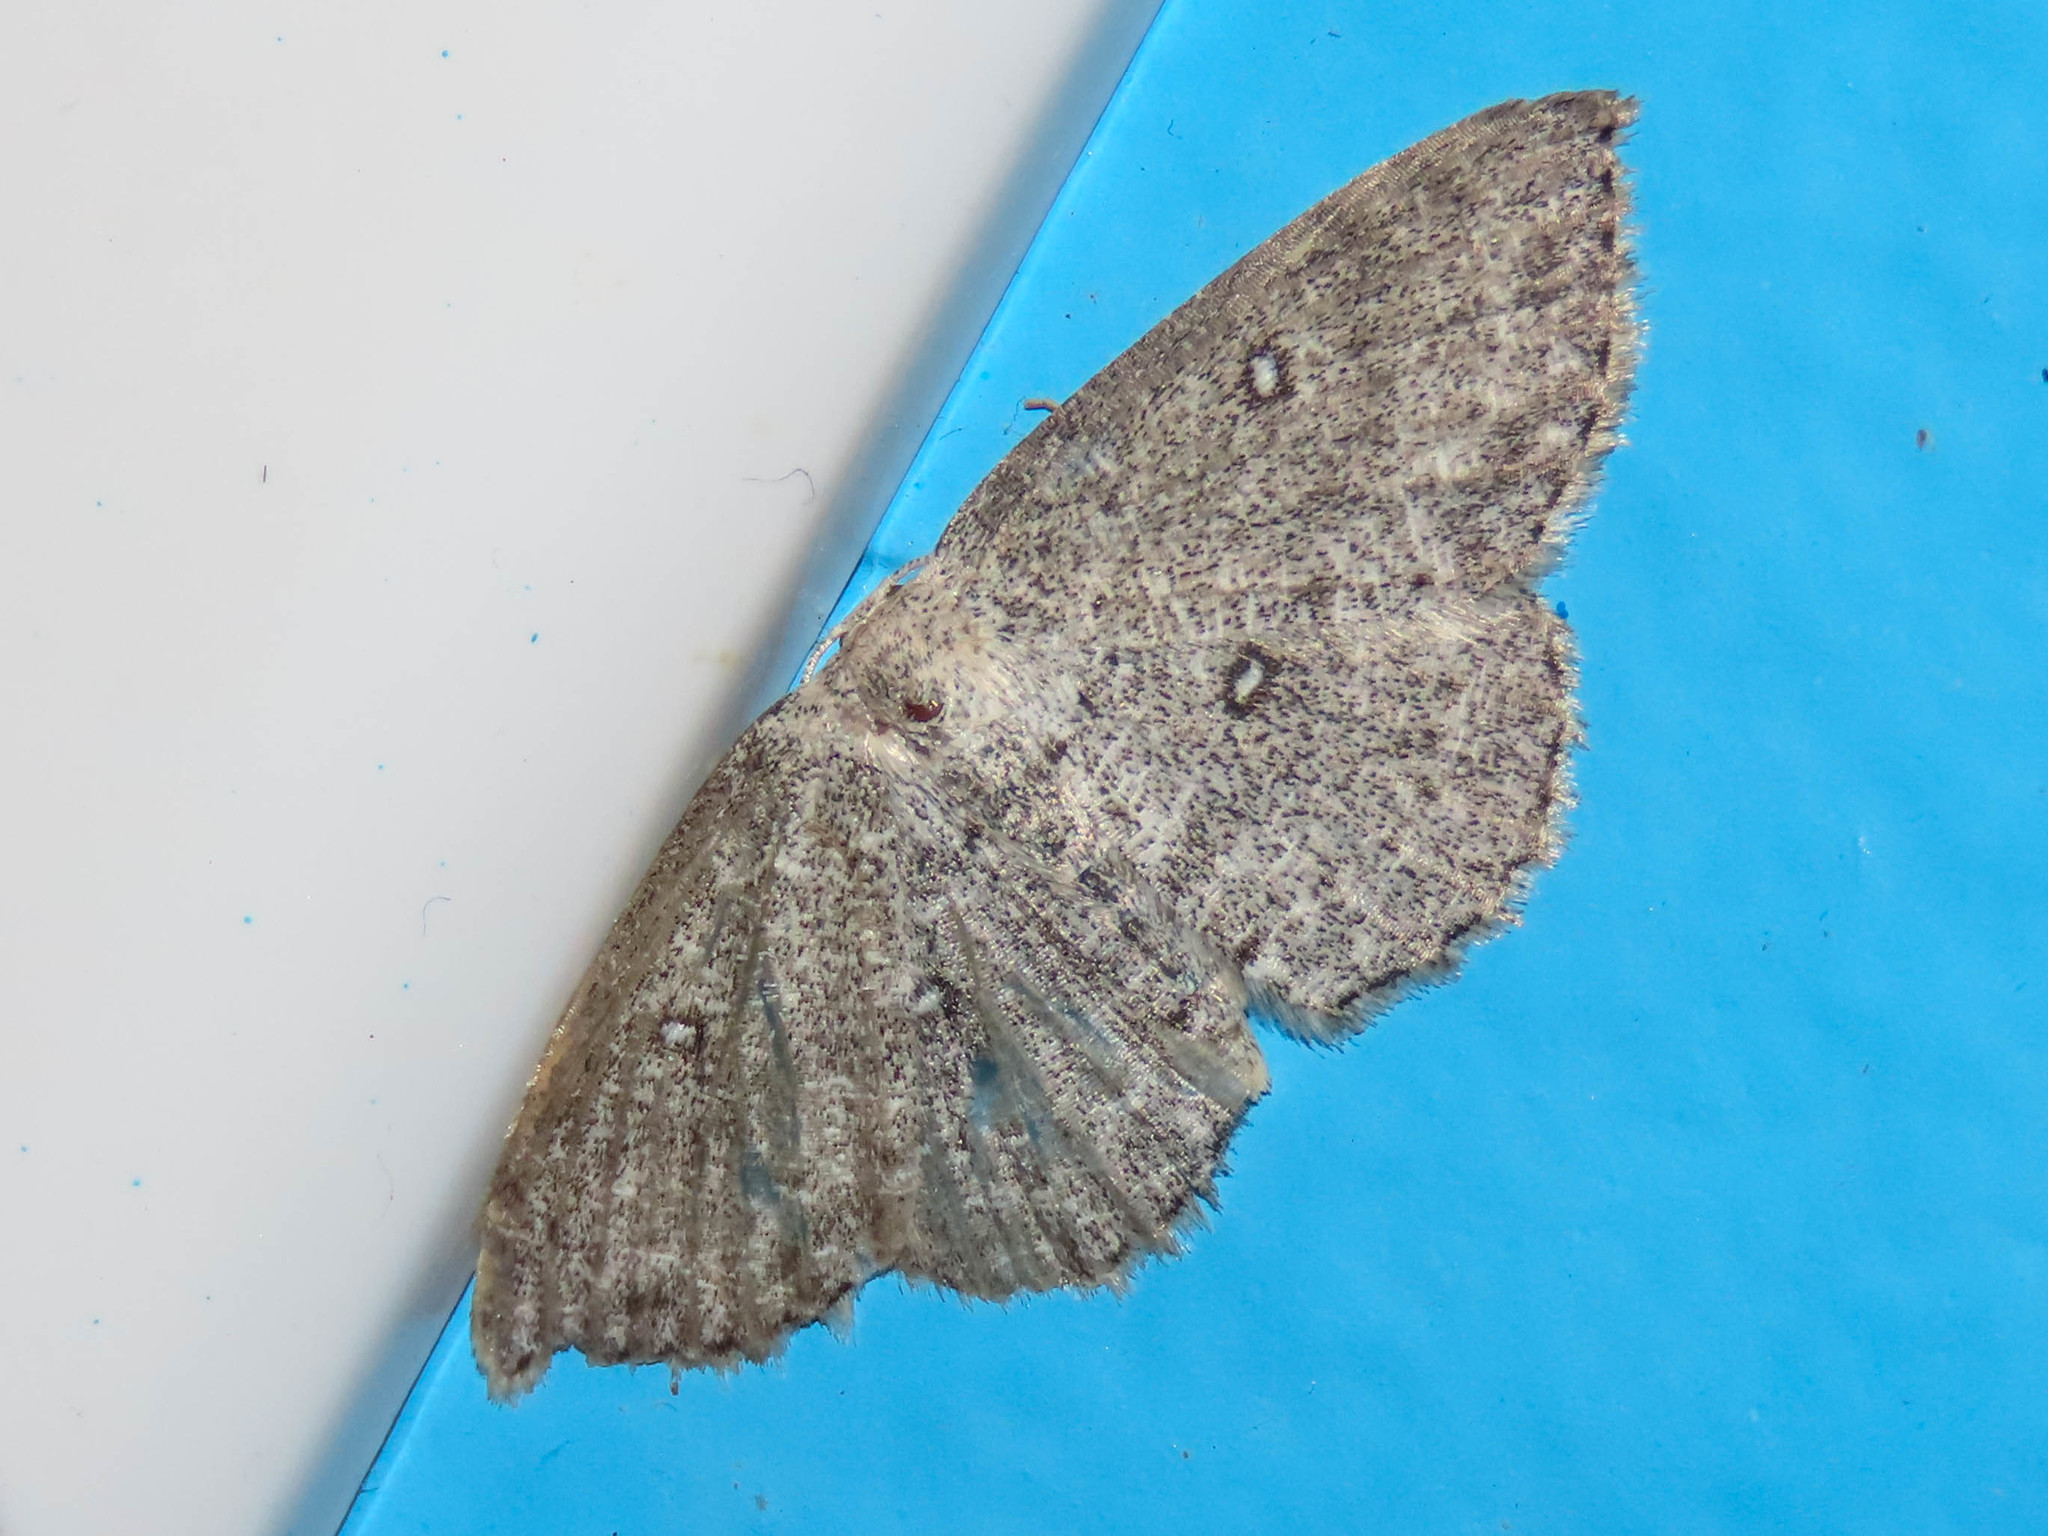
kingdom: Animalia
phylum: Arthropoda
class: Insecta
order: Lepidoptera
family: Geometridae
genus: Cyclophora
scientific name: Cyclophora pendulinaria
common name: Sweet fern geometer
